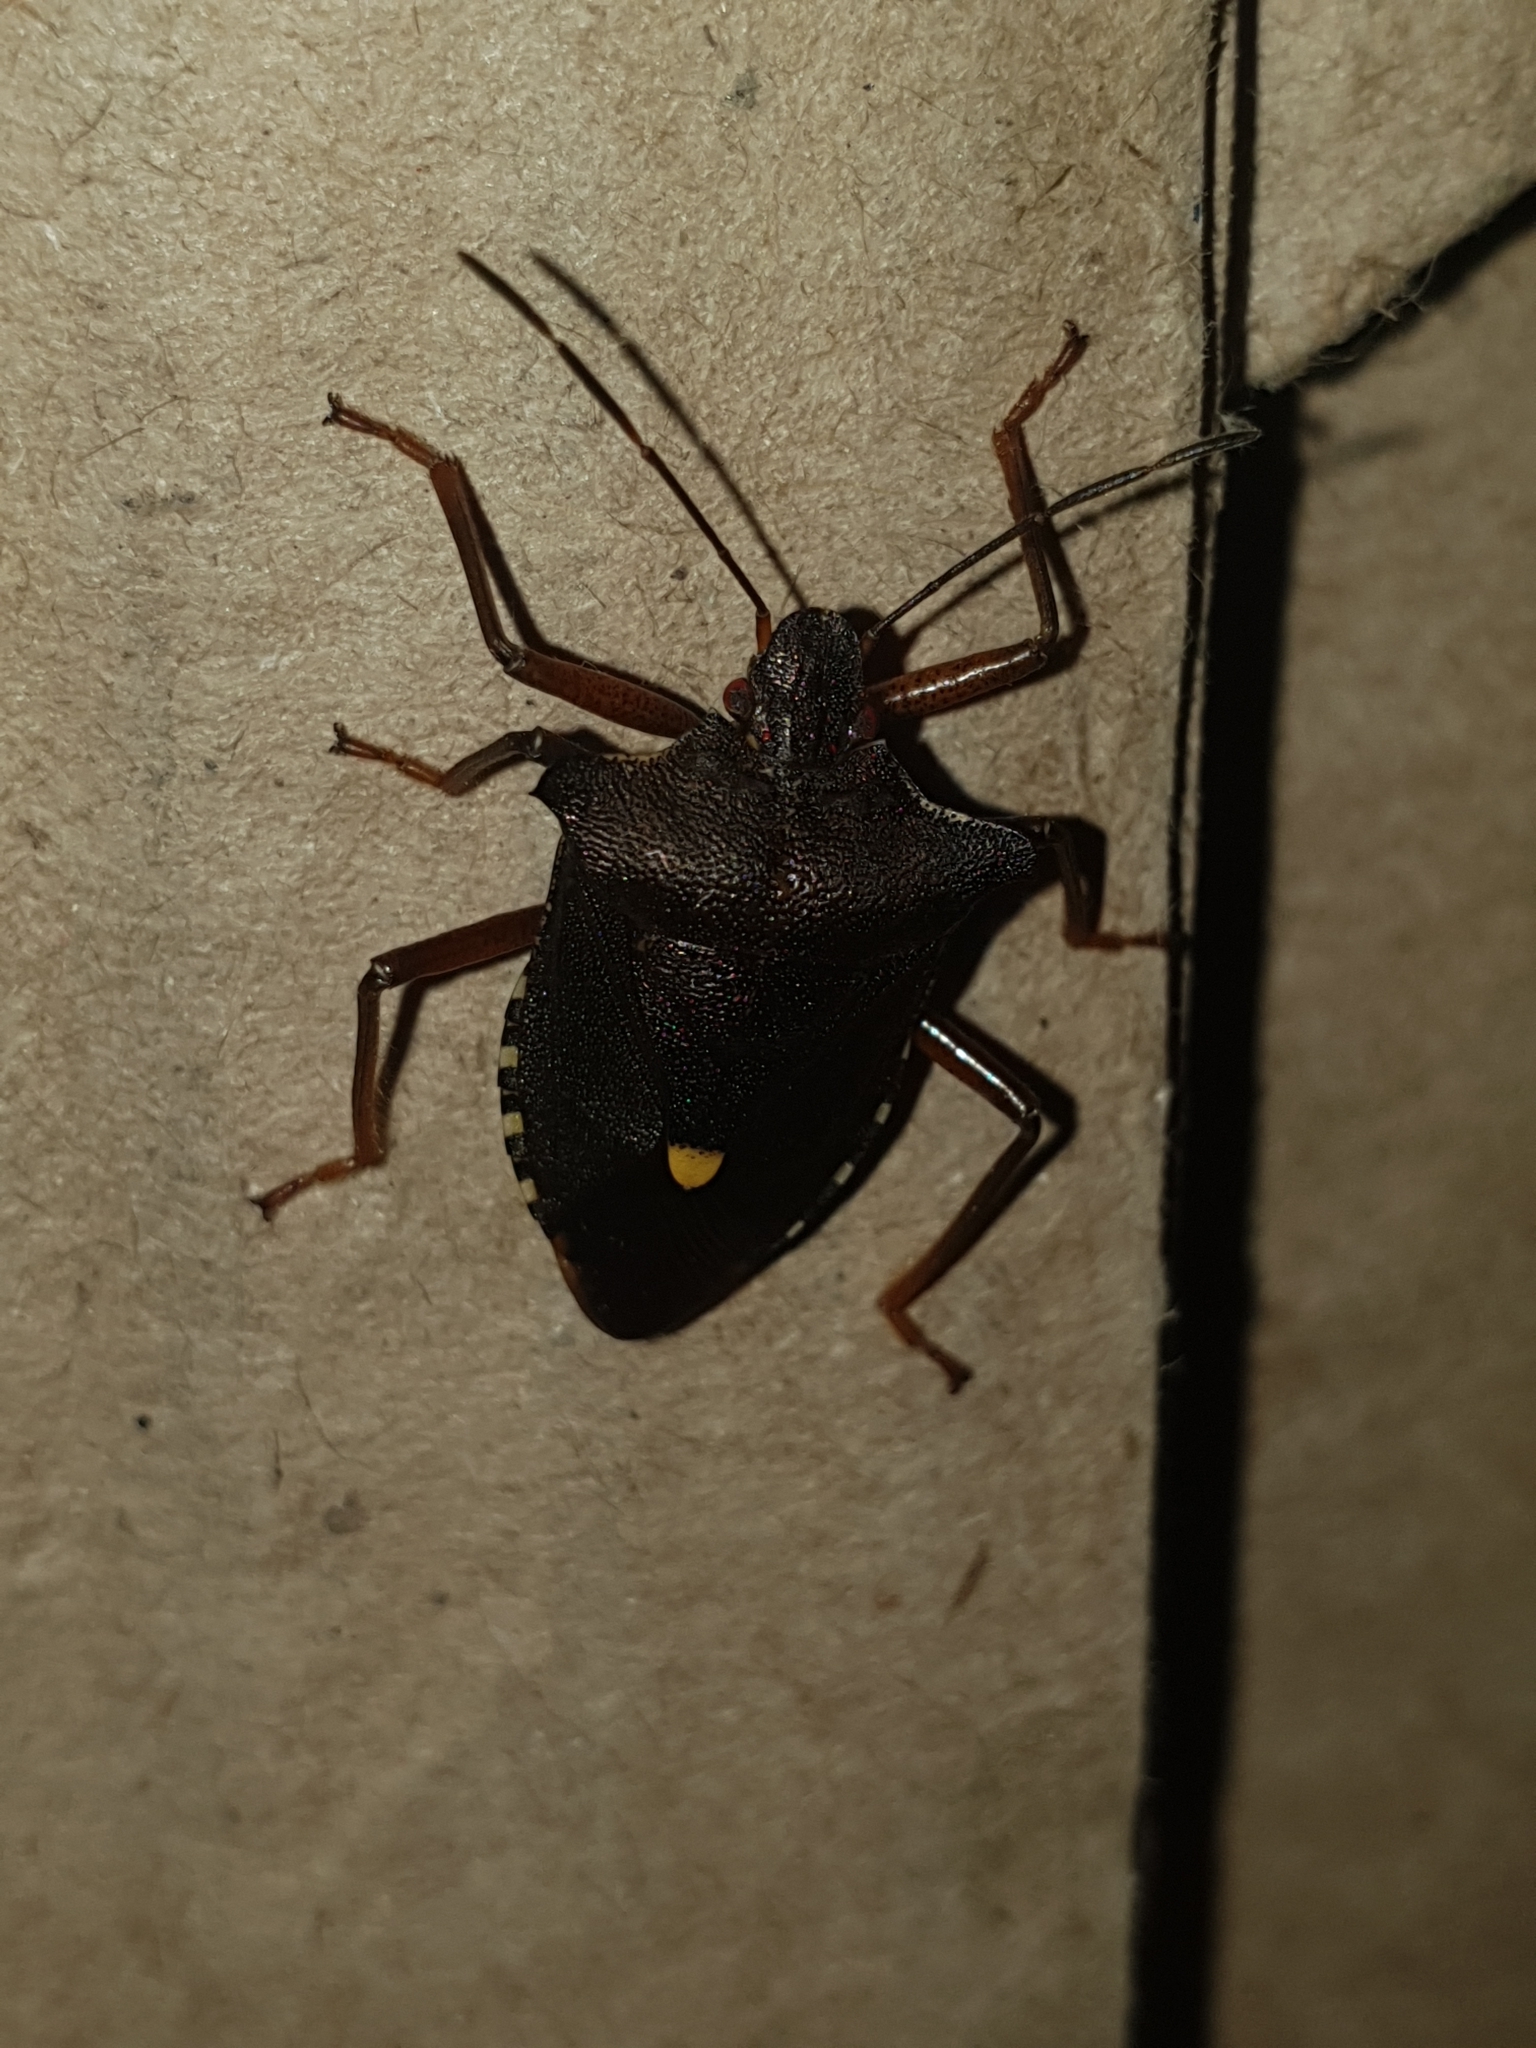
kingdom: Animalia
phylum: Arthropoda
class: Insecta
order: Hemiptera
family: Pentatomidae
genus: Pentatoma
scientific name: Pentatoma rufipes
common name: Forest bug
